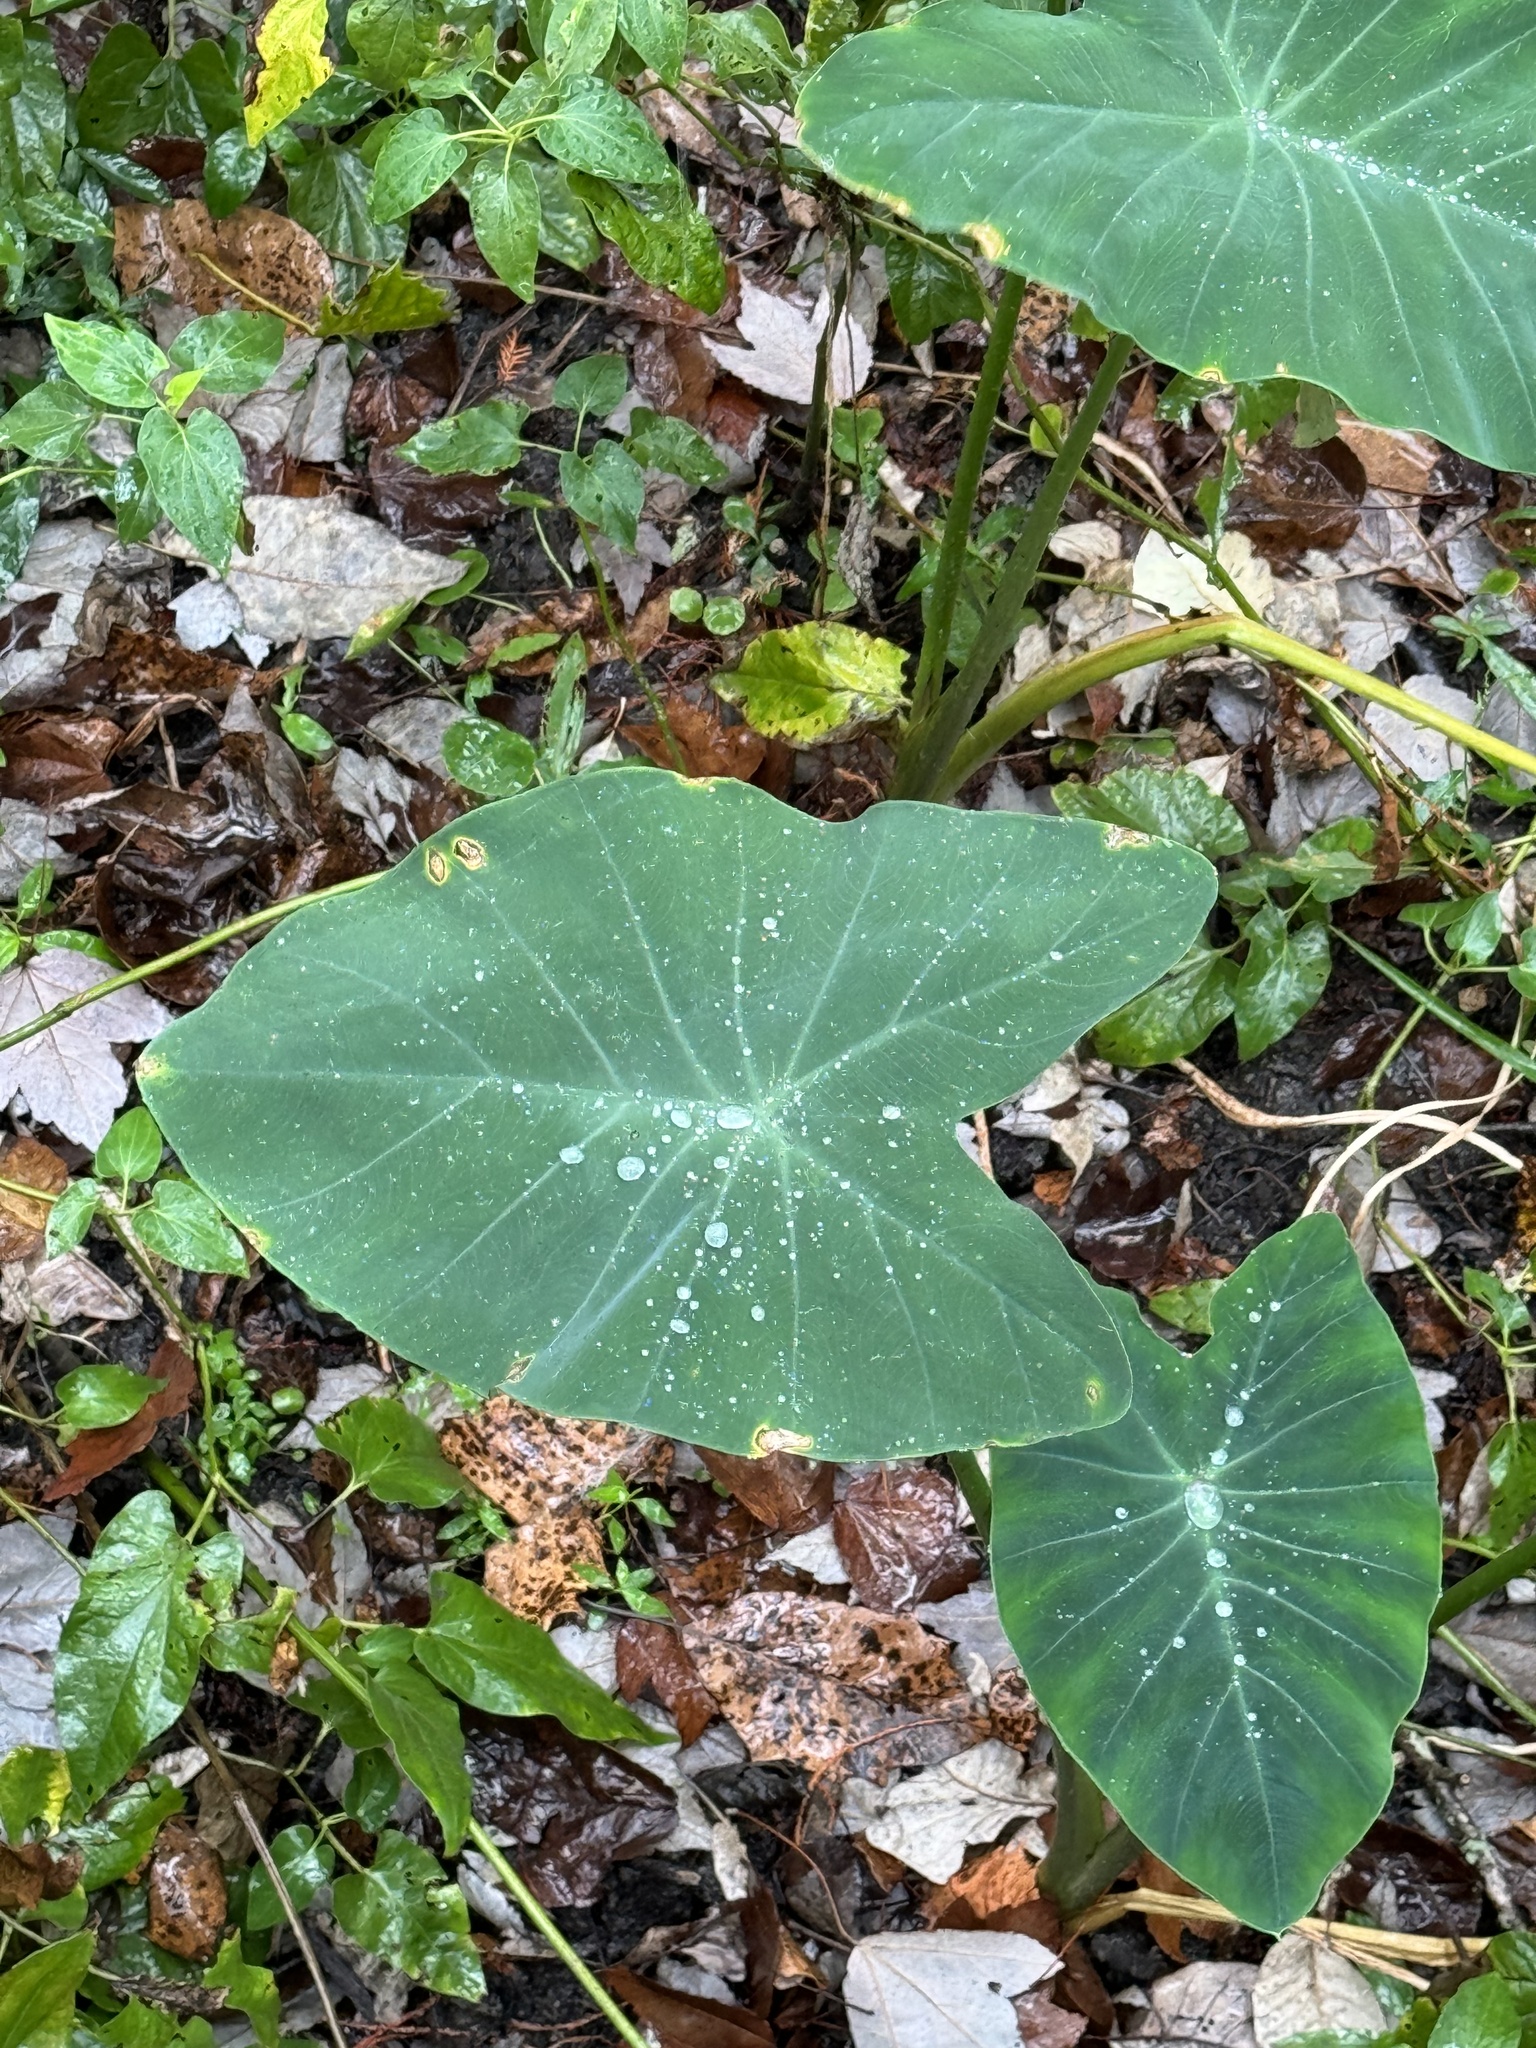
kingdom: Plantae
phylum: Tracheophyta
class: Liliopsida
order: Alismatales
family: Araceae
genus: Colocasia
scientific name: Colocasia esculenta
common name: Taro
